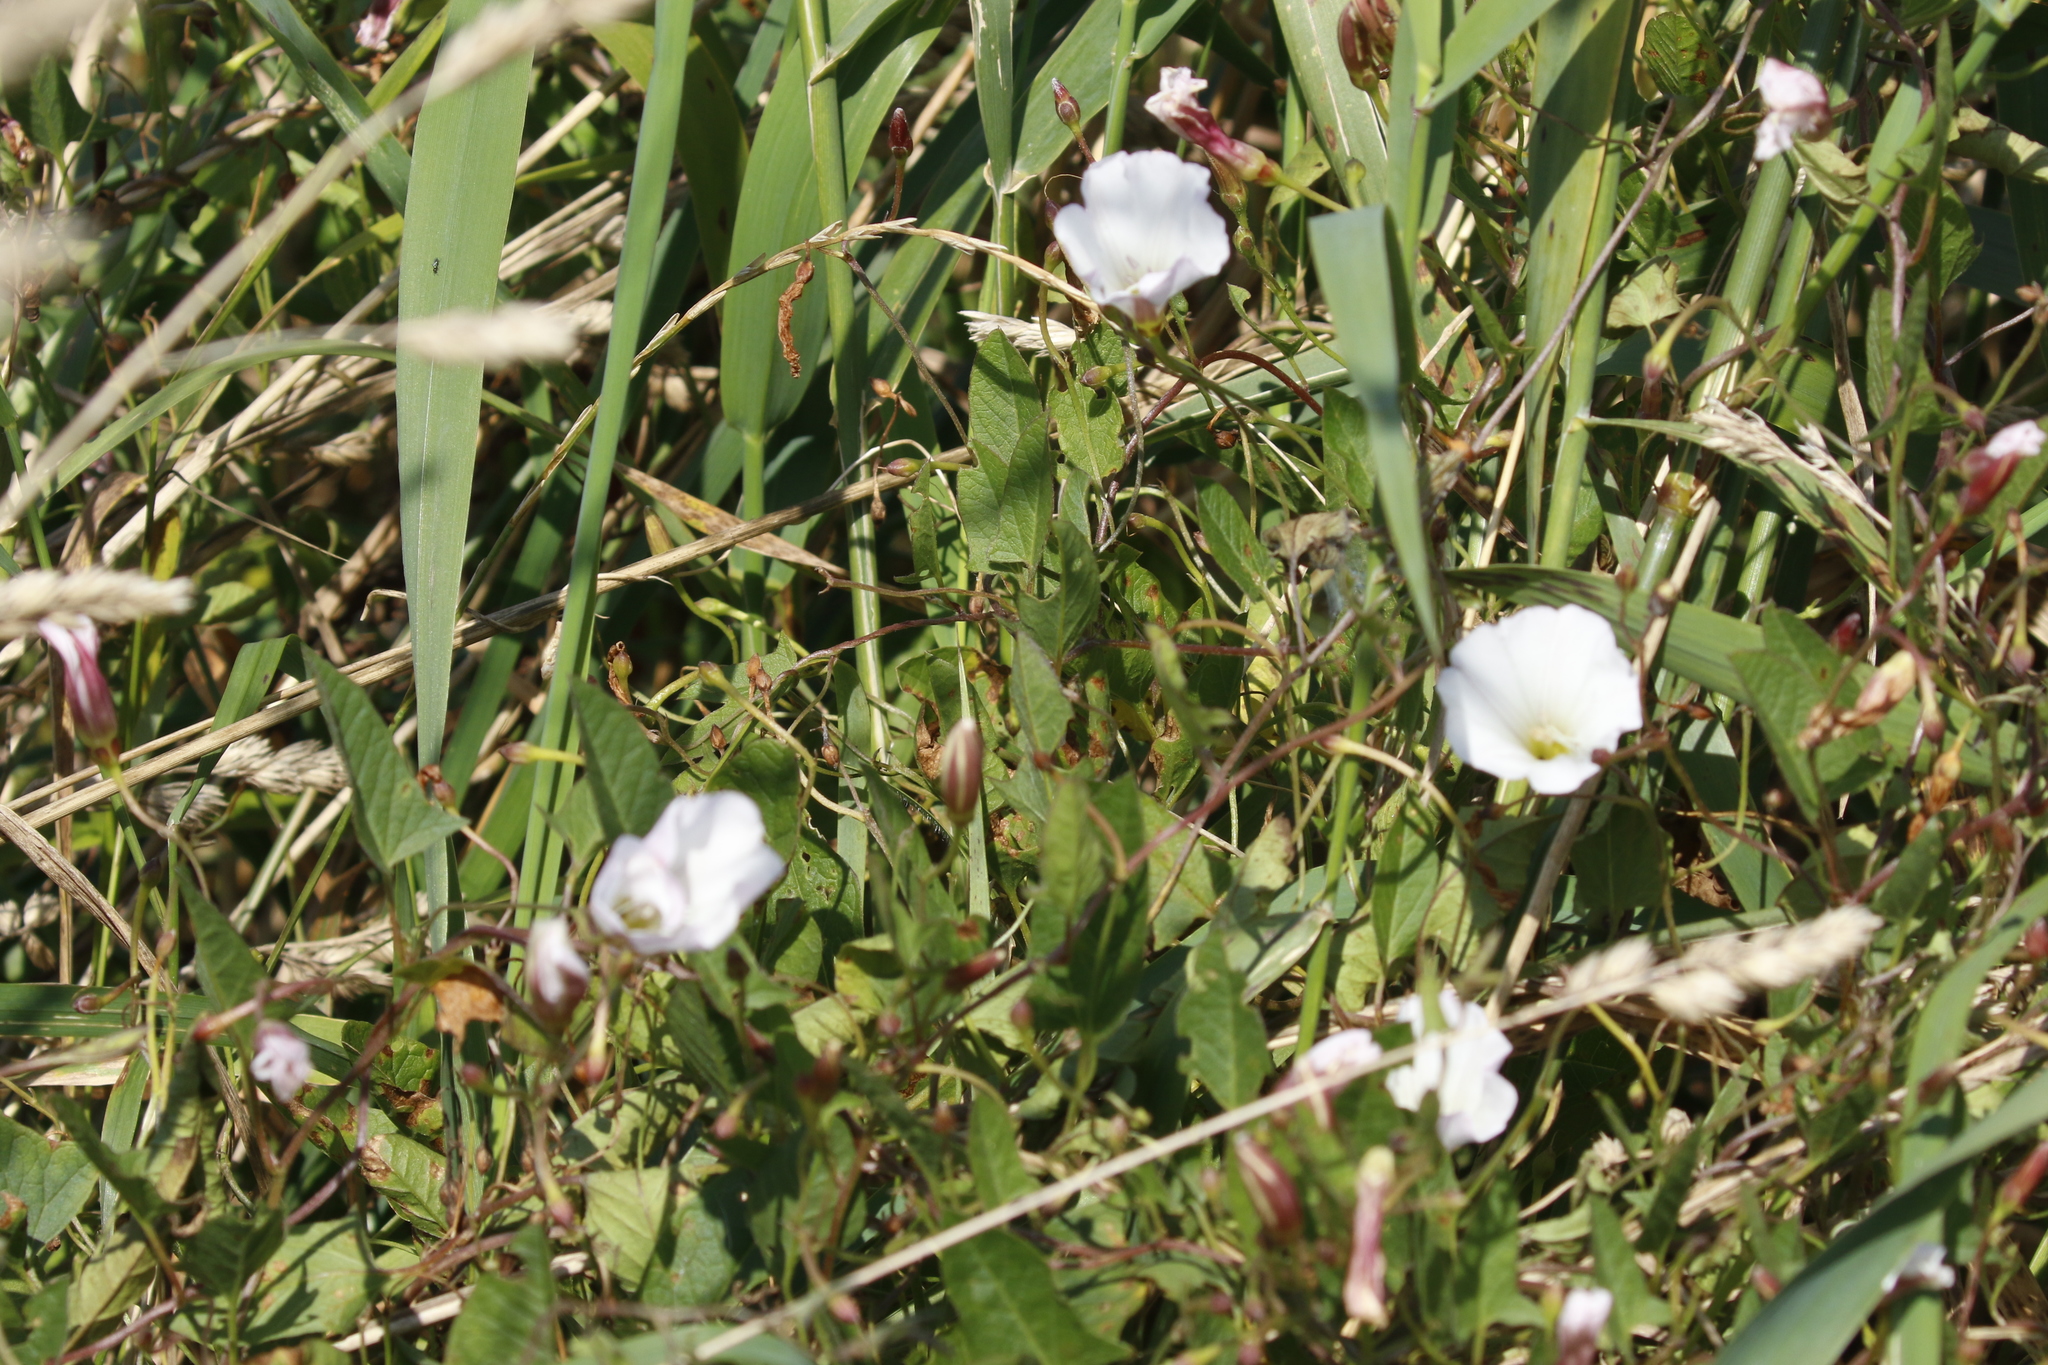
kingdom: Plantae
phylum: Tracheophyta
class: Magnoliopsida
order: Solanales
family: Convolvulaceae
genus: Convolvulus
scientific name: Convolvulus arvensis
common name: Field bindweed
